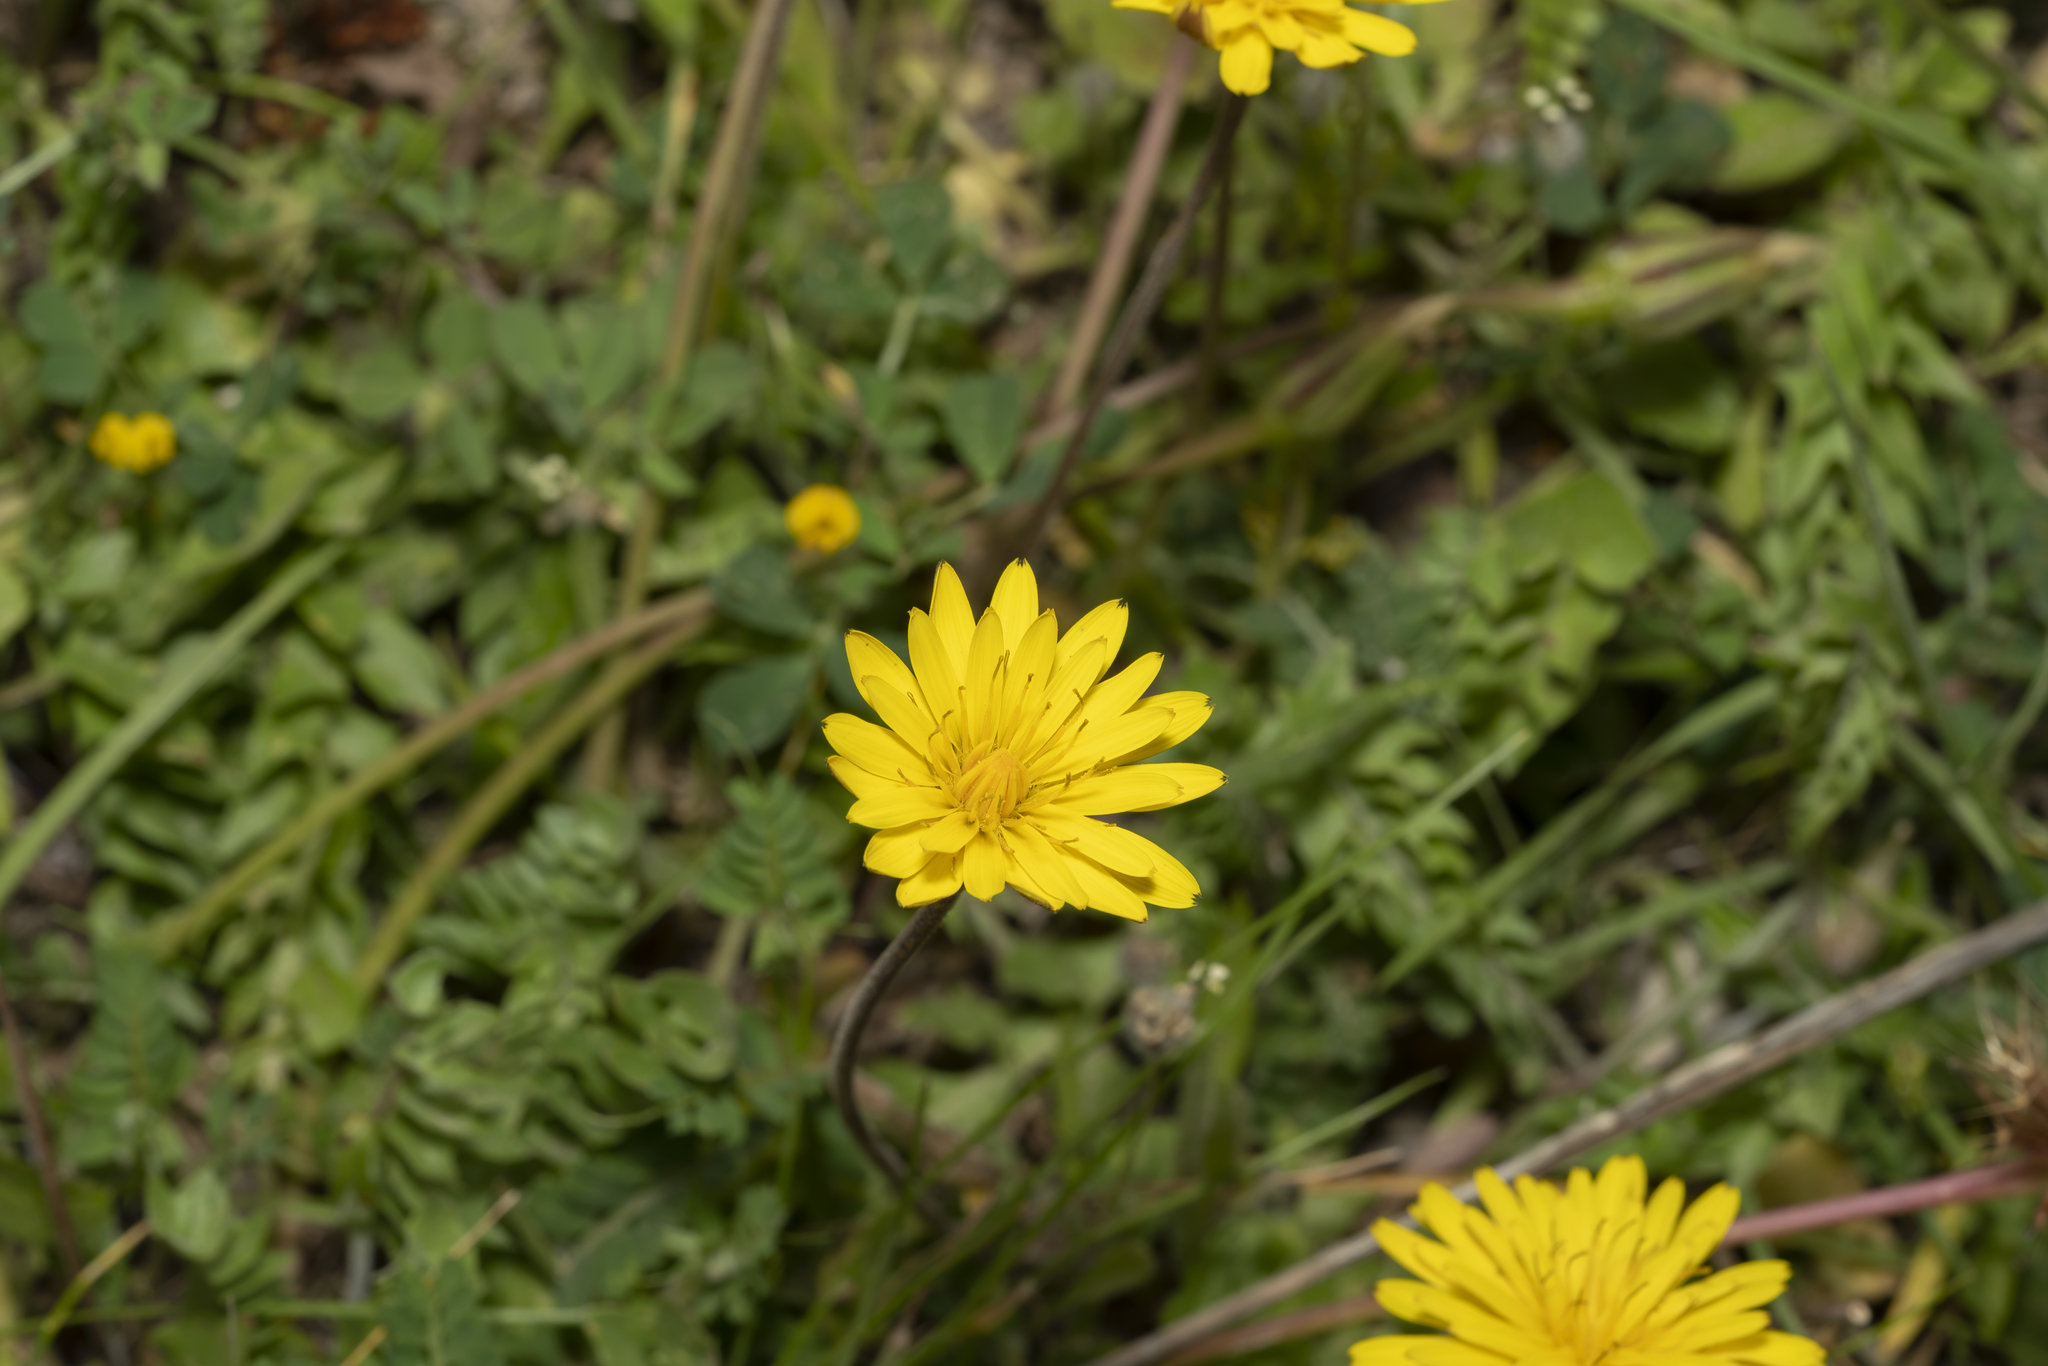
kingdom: Plantae
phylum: Tracheophyta
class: Magnoliopsida
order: Asterales
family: Asteraceae
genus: Hyoseris
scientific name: Hyoseris radiata
